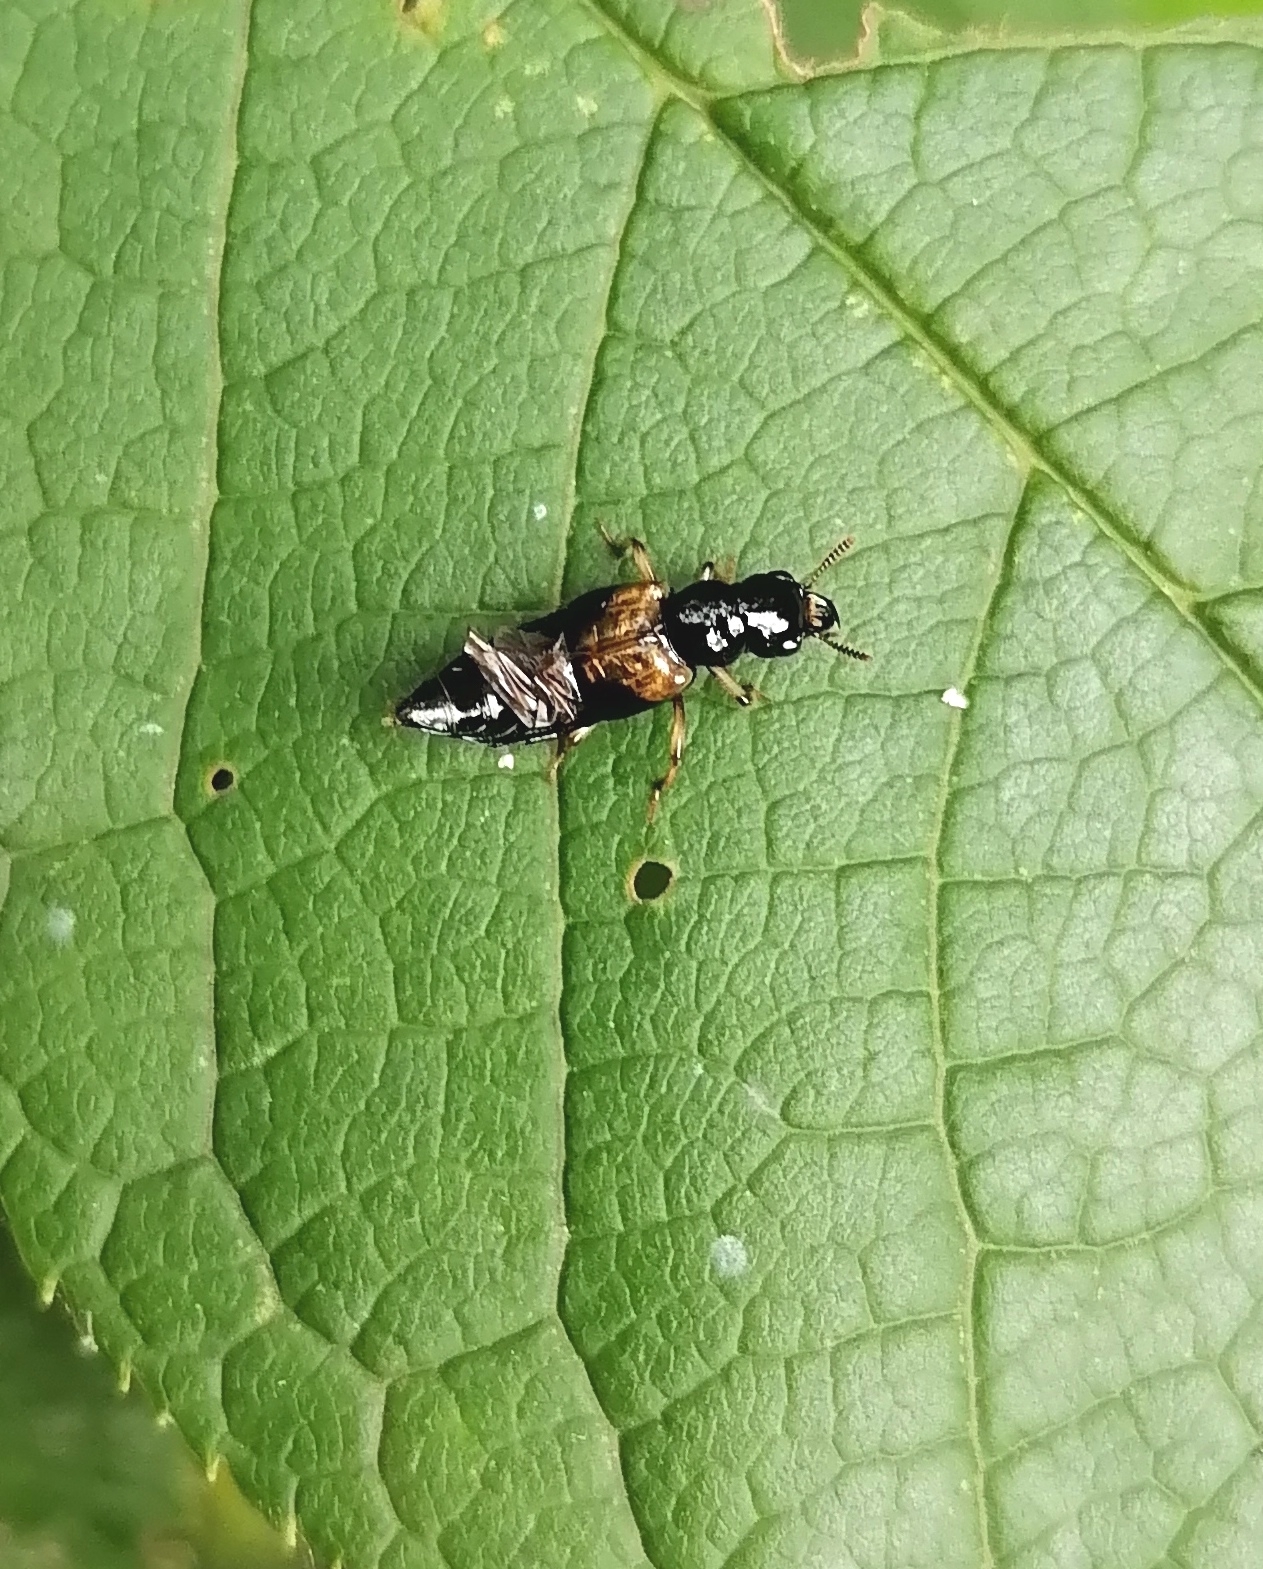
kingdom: Animalia
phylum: Arthropoda
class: Insecta
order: Coleoptera
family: Staphylinidae
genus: Oxyporus
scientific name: Oxyporus maxillosus
